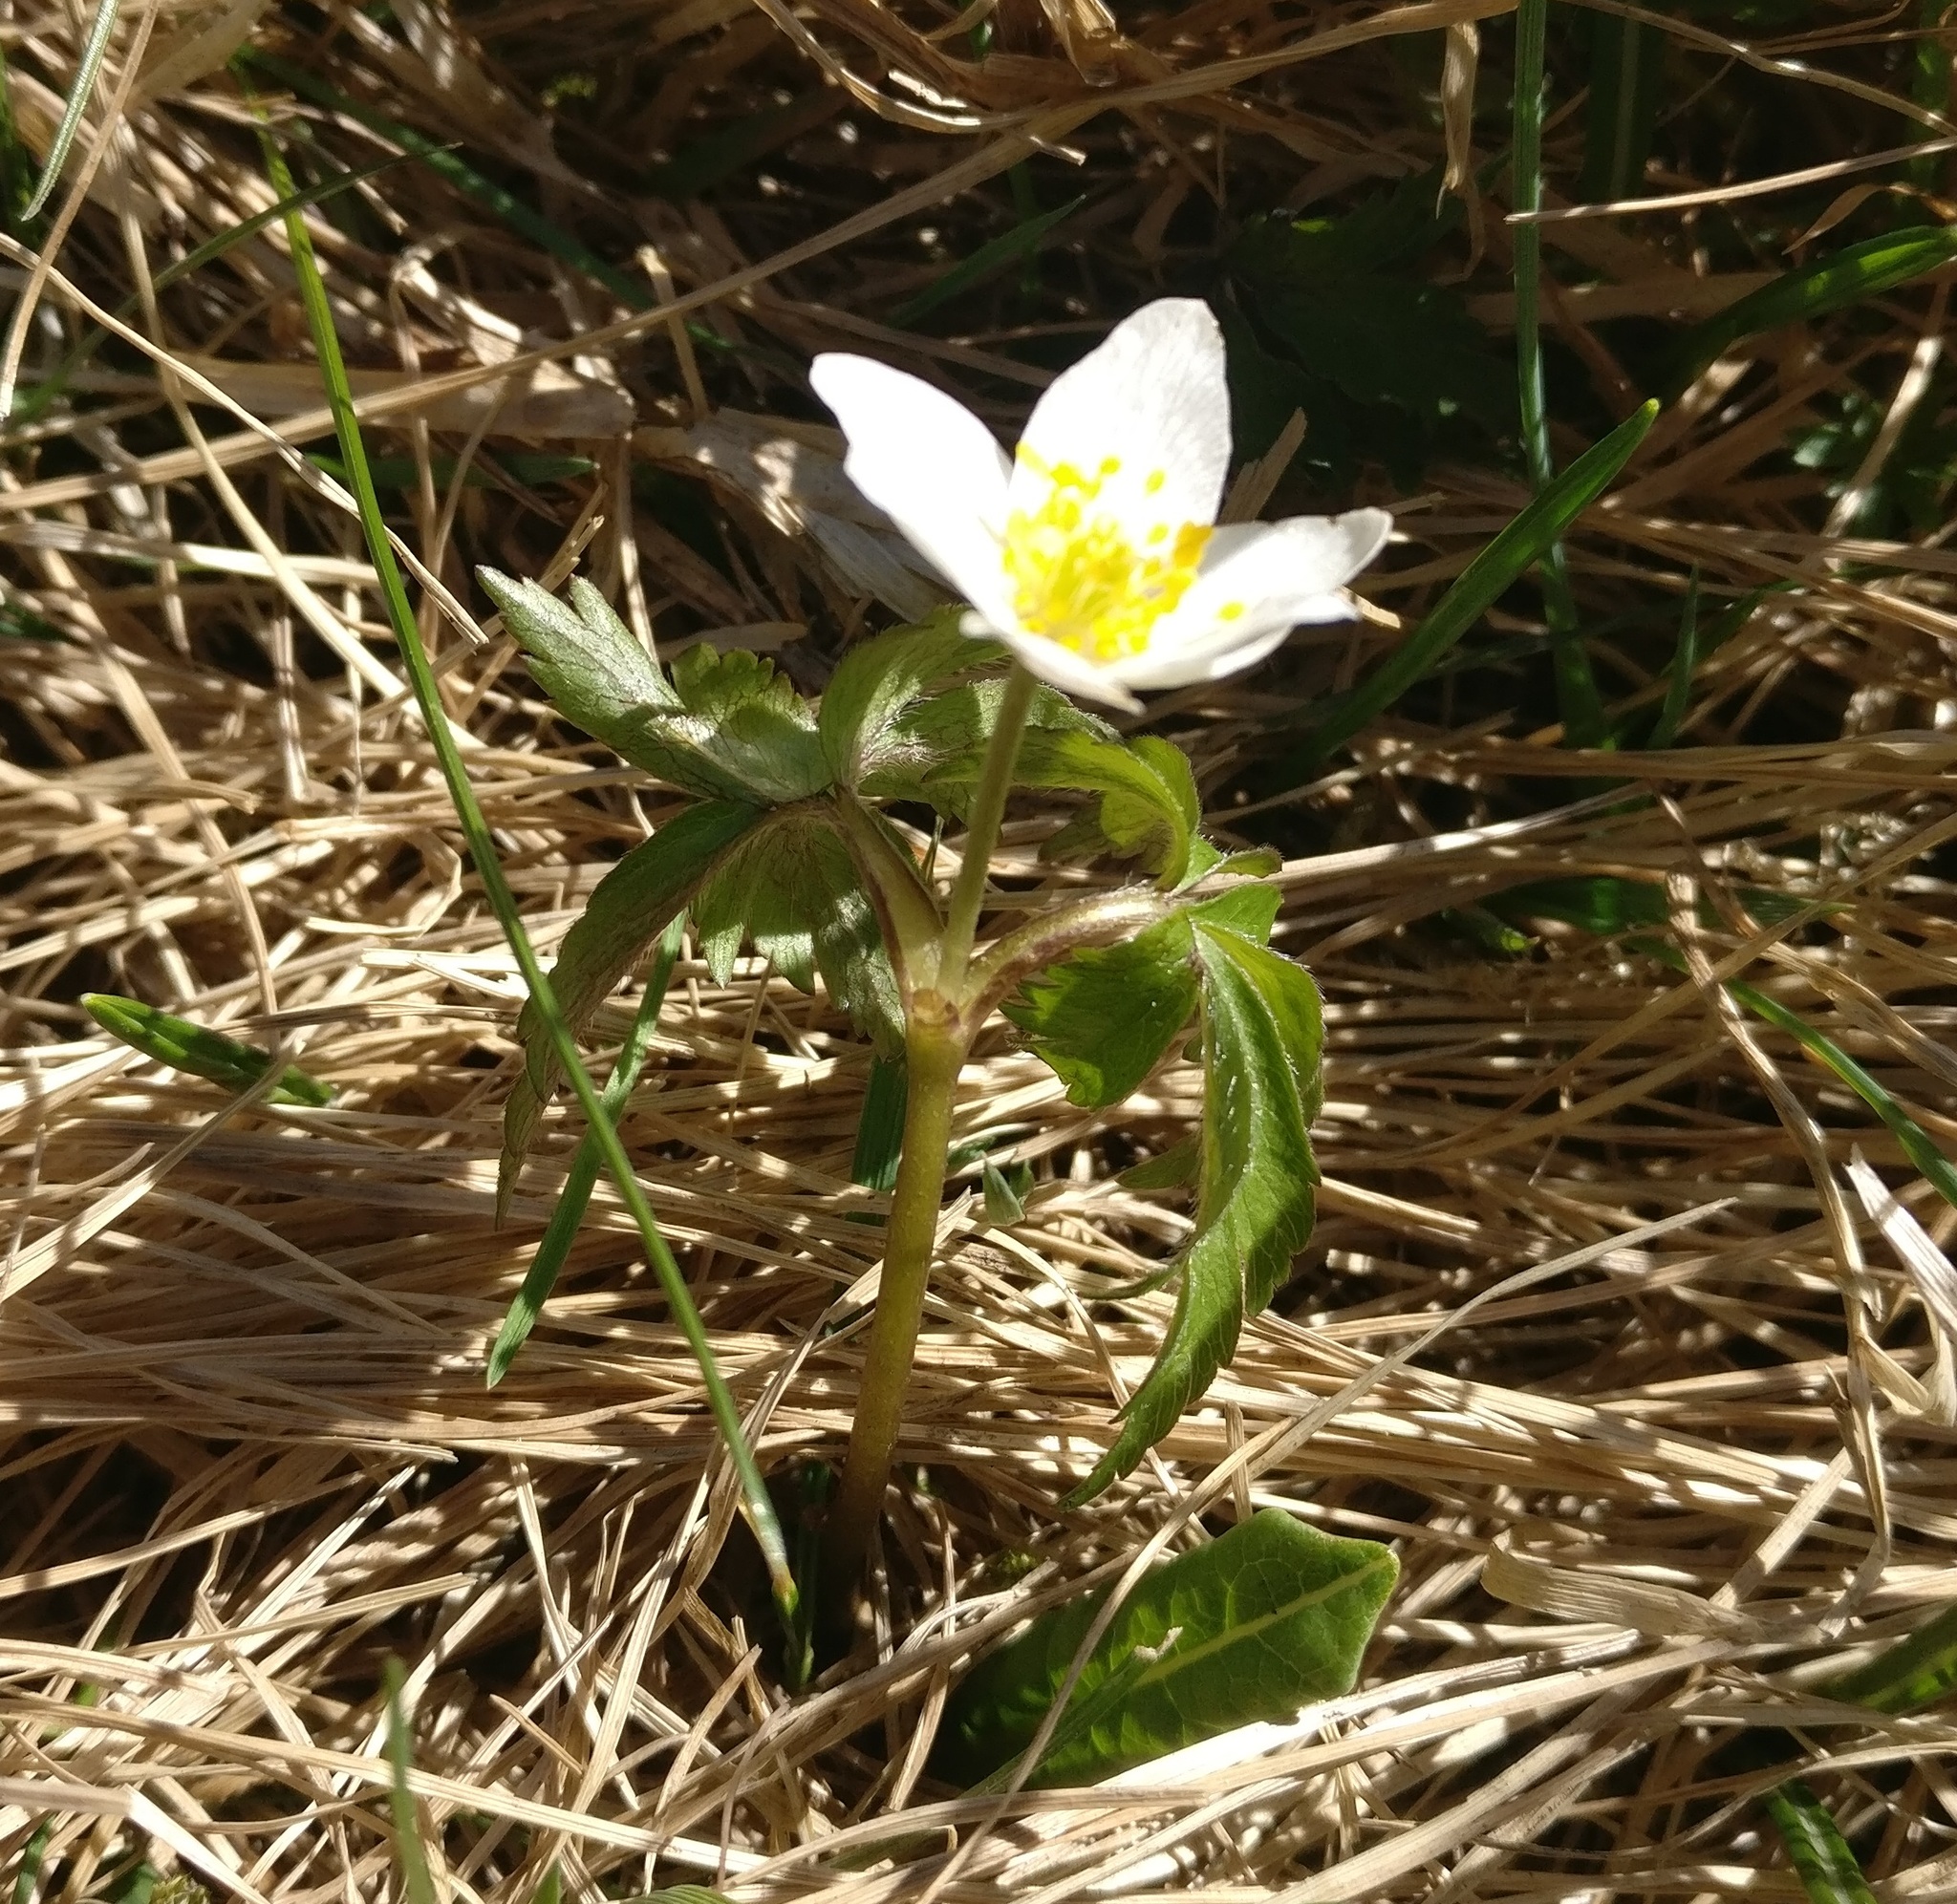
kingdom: Plantae
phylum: Tracheophyta
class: Magnoliopsida
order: Ranunculales
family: Ranunculaceae
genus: Anemone
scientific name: Anemone nemorosa
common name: Wood anemone
